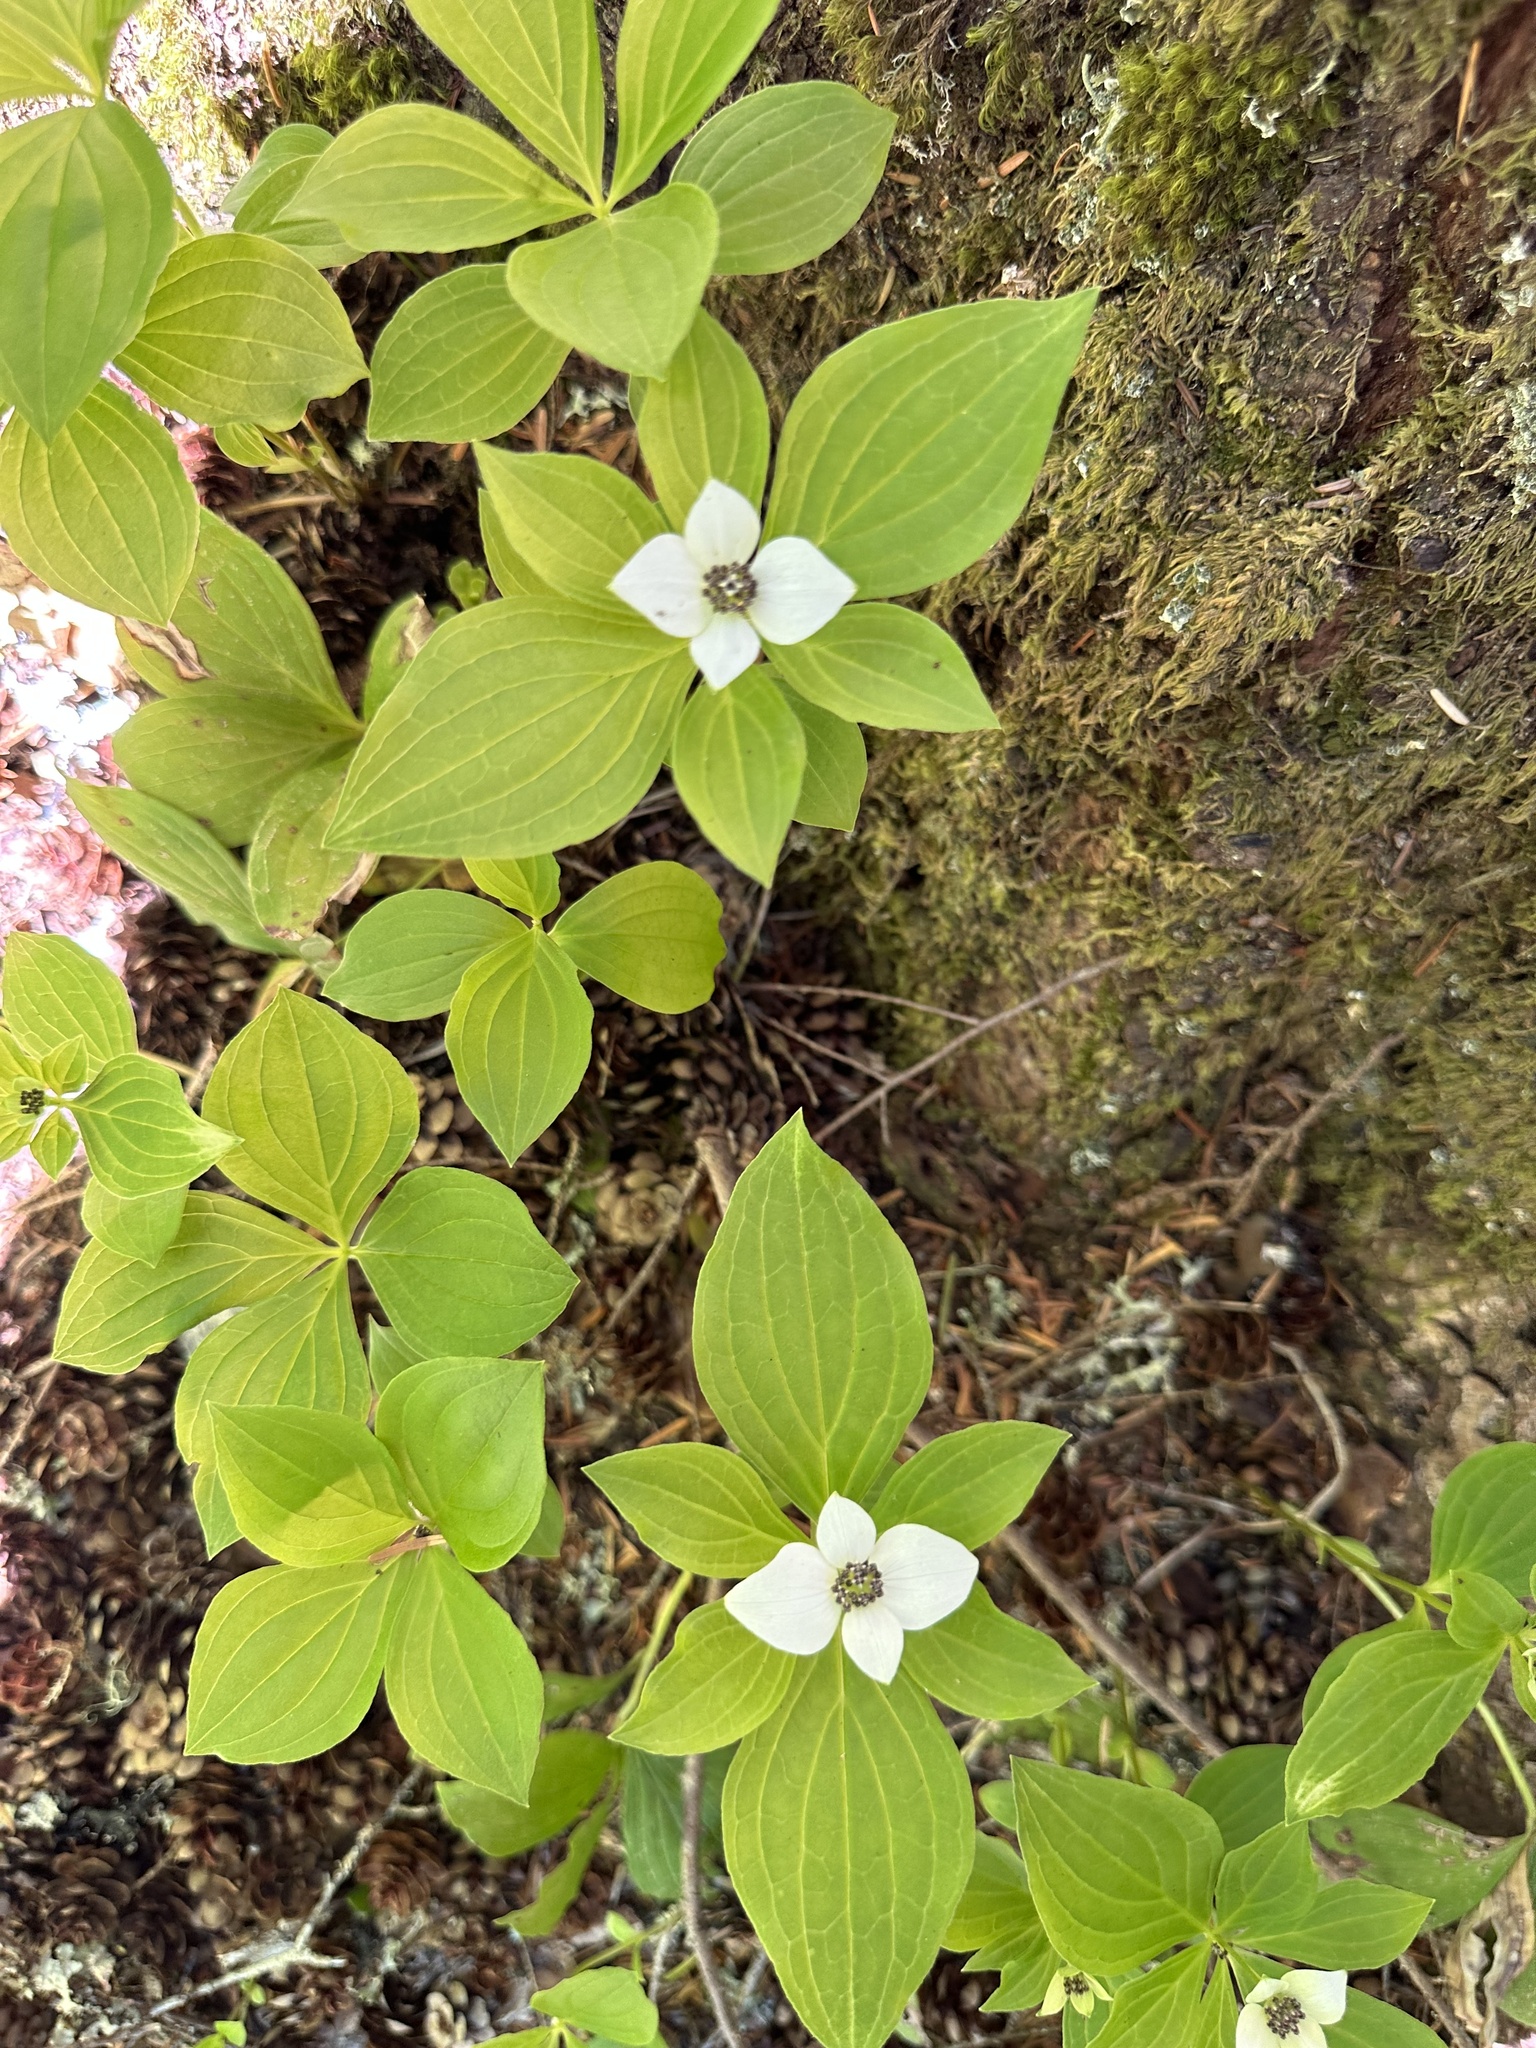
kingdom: Plantae
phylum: Tracheophyta
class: Magnoliopsida
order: Cornales
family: Cornaceae
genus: Cornus
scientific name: Cornus unalaschkensis
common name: Alaska bunchberry
